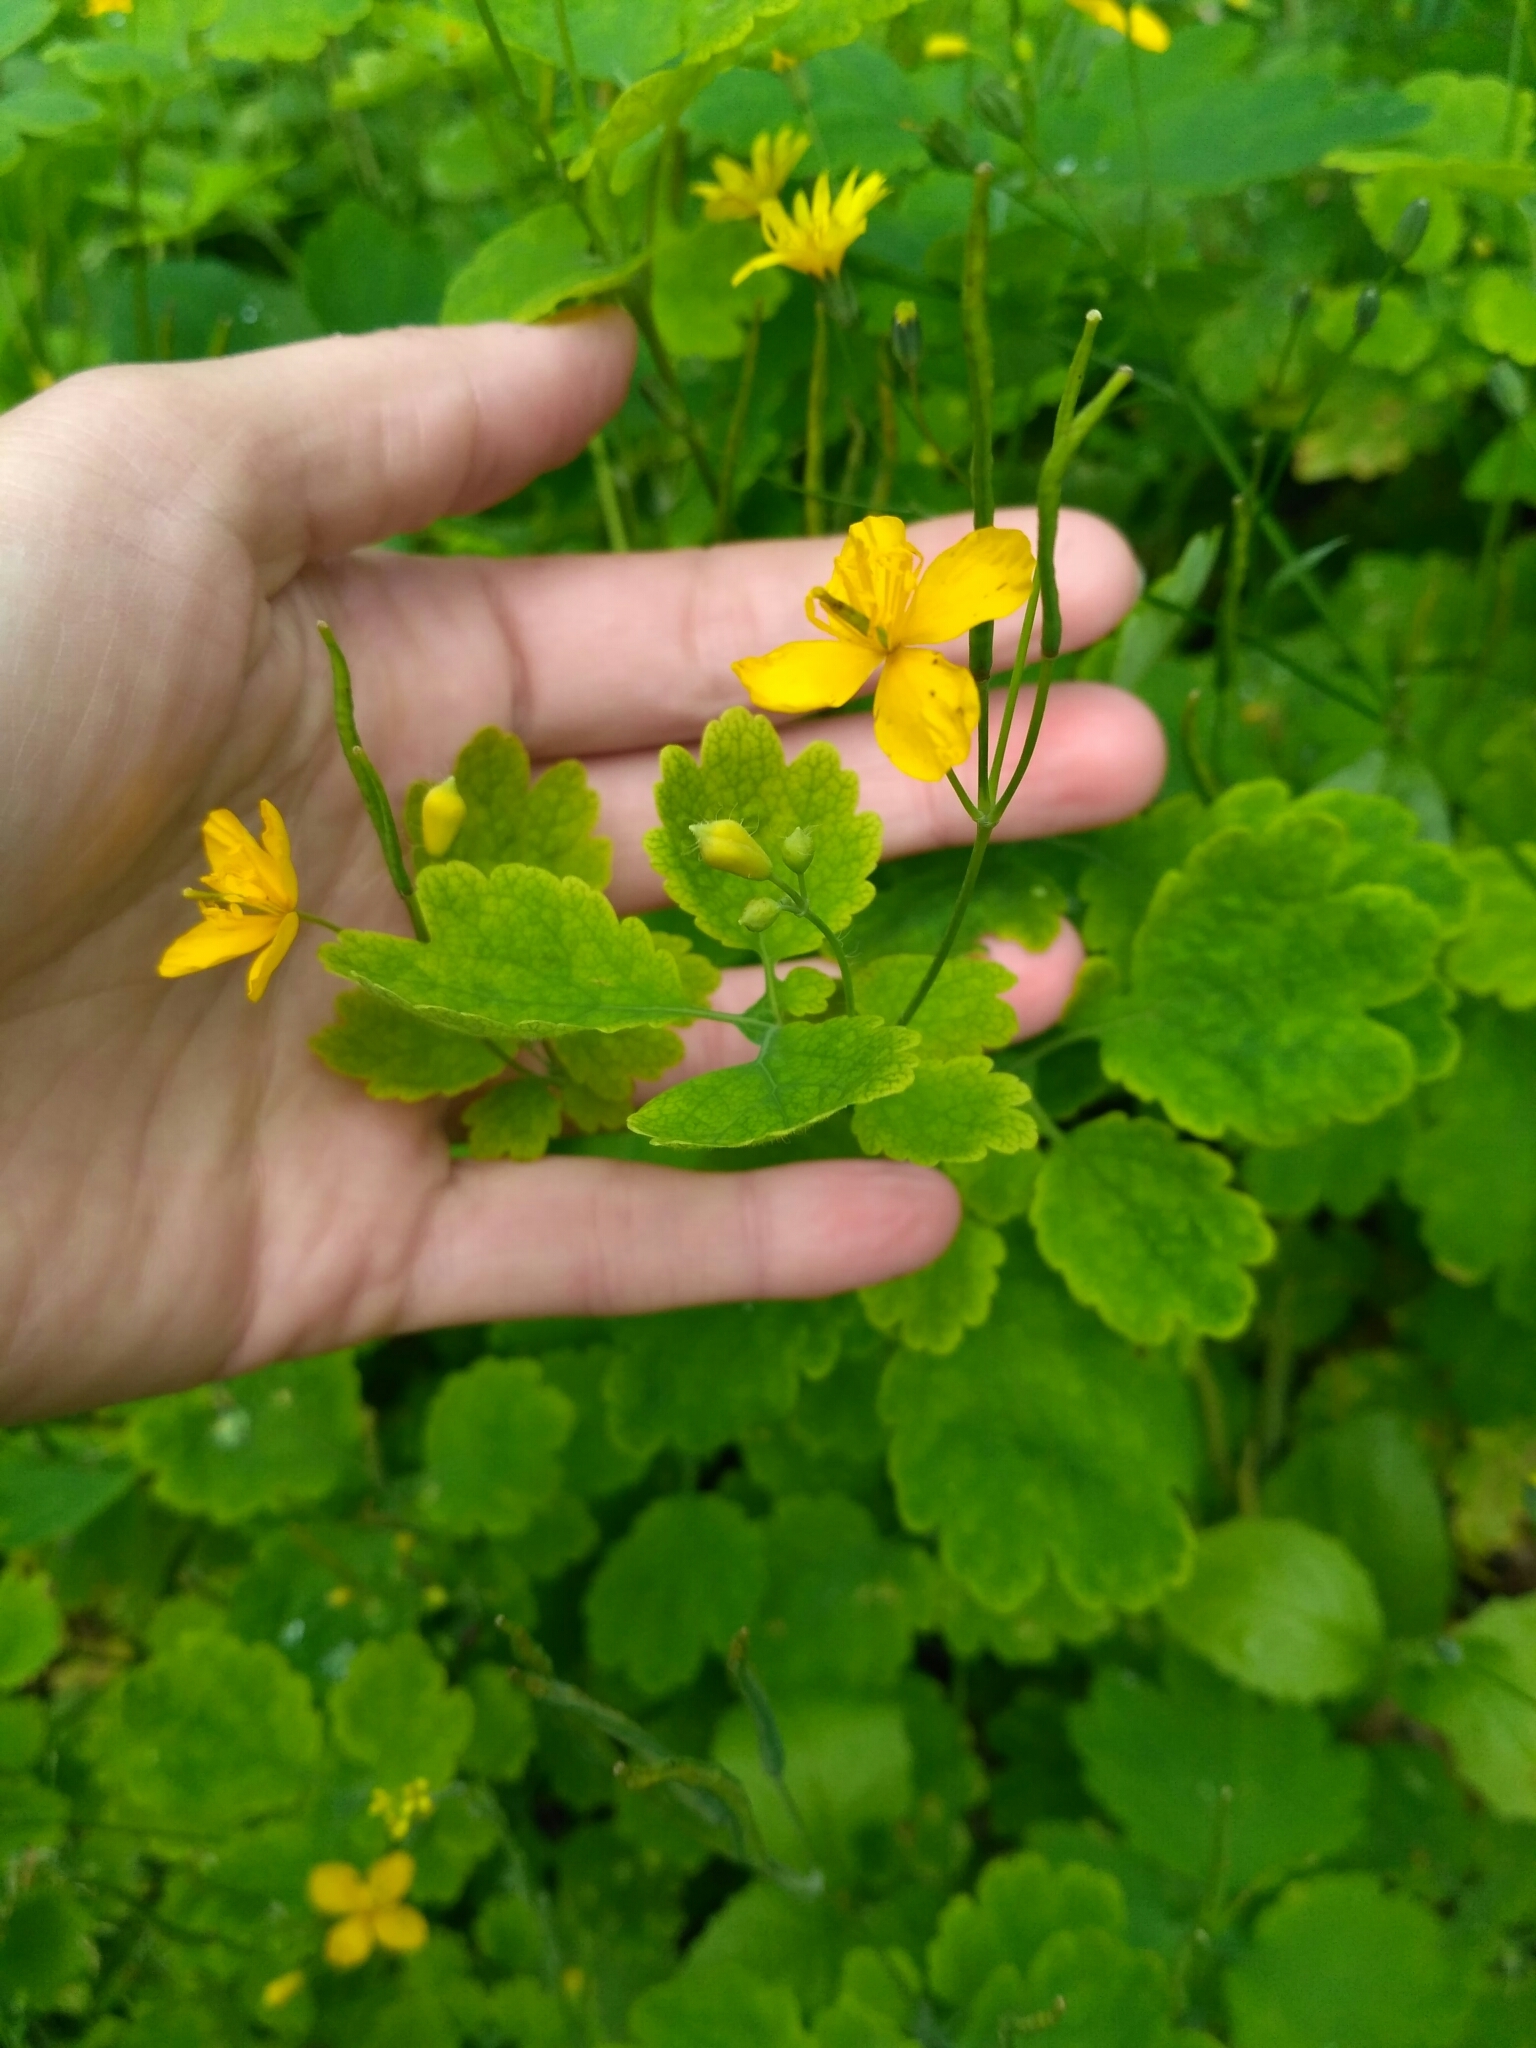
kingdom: Plantae
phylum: Tracheophyta
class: Magnoliopsida
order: Ranunculales
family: Papaveraceae
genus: Chelidonium
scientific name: Chelidonium majus
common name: Greater celandine
